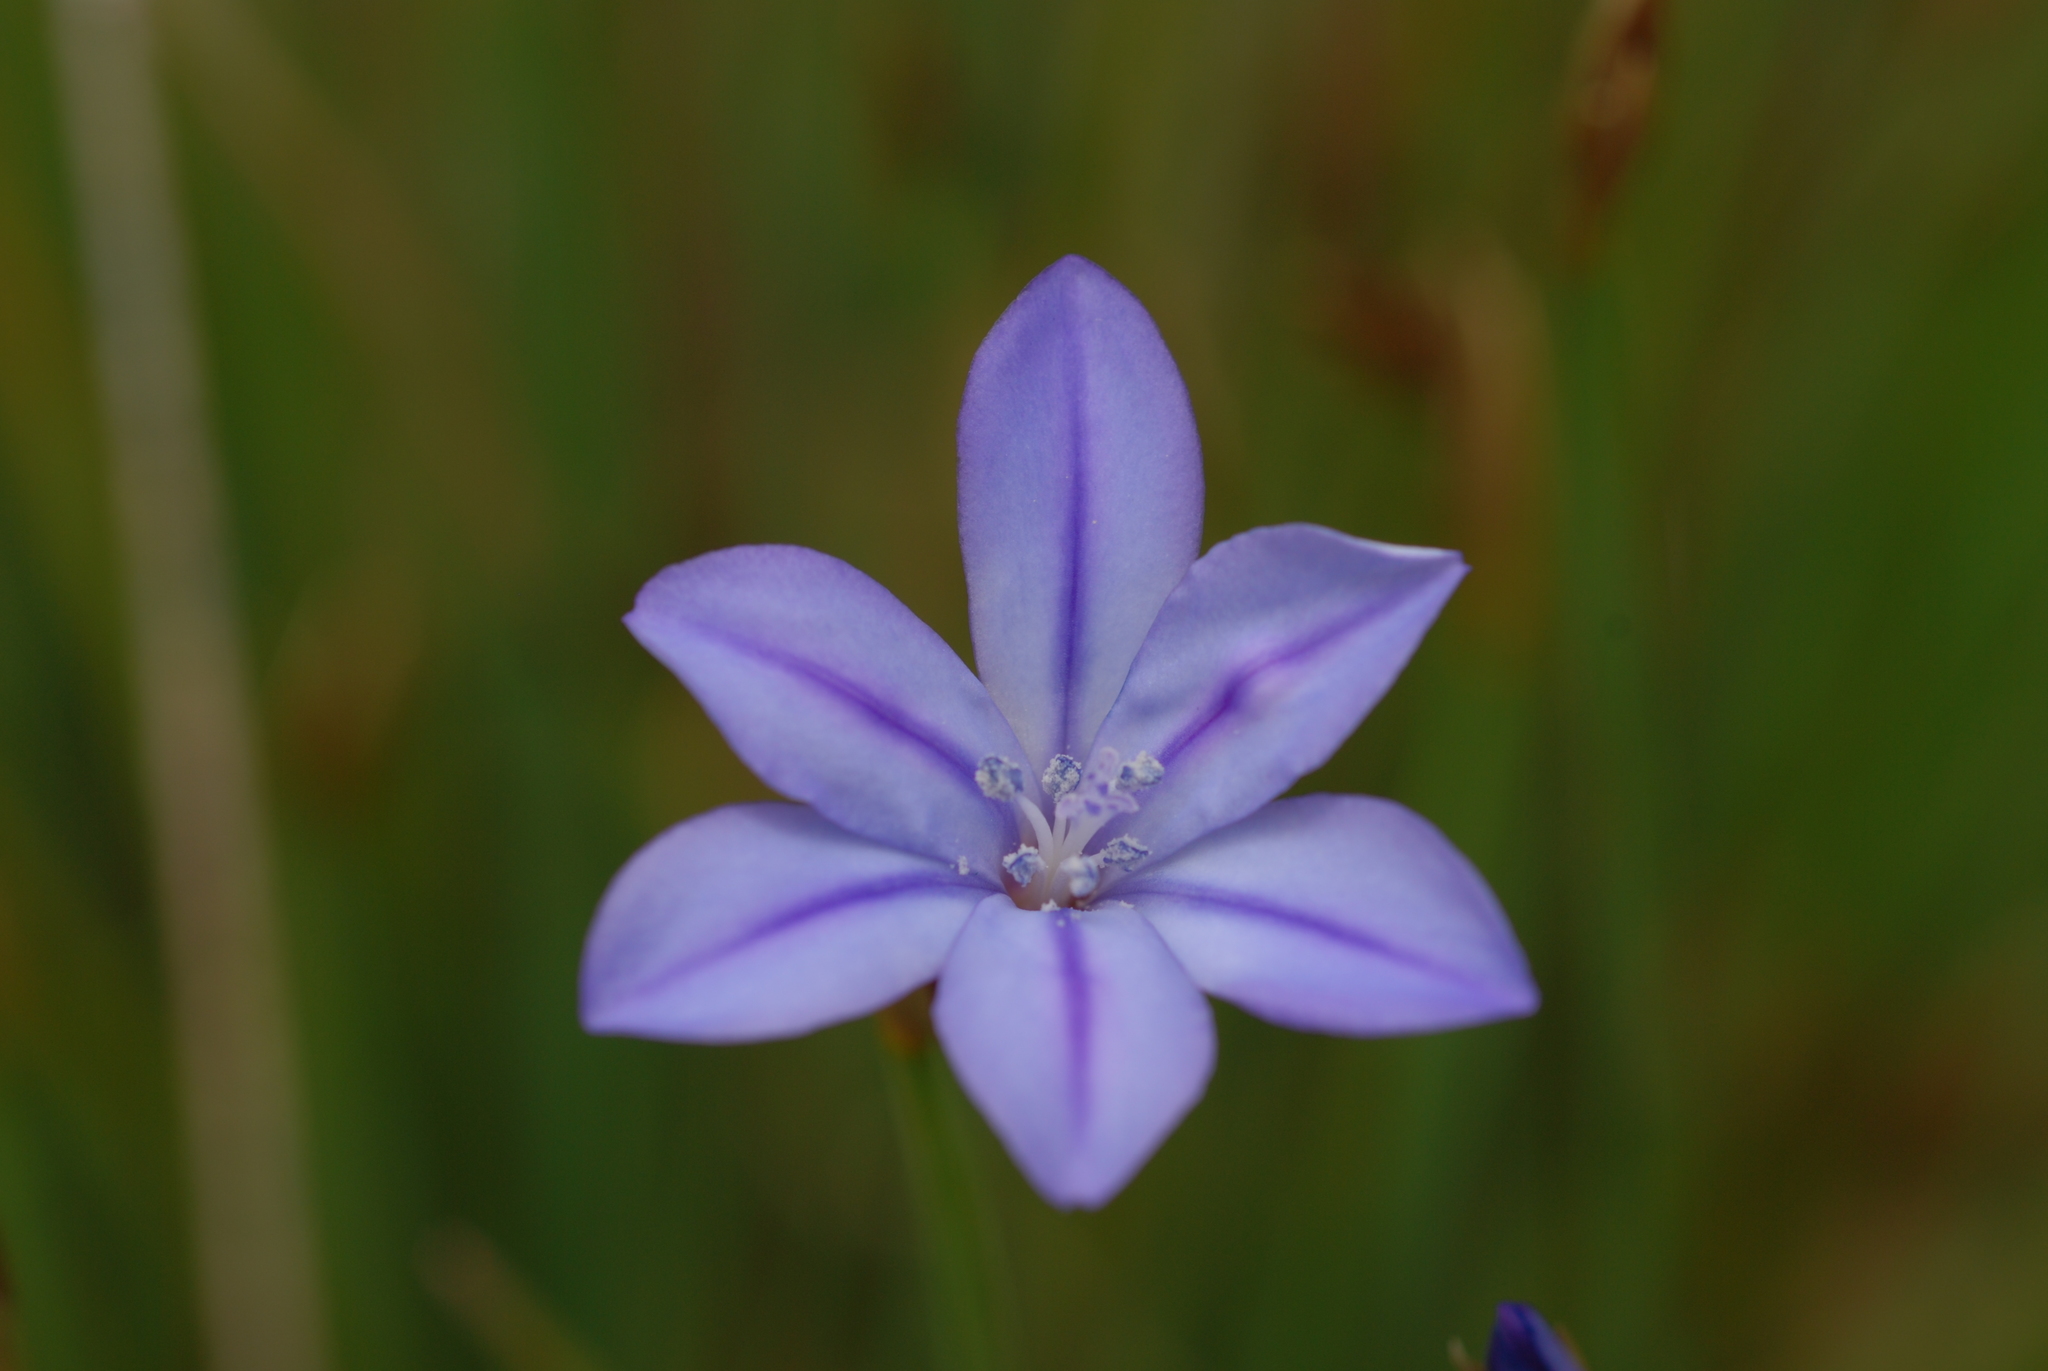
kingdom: Plantae
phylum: Tracheophyta
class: Liliopsida
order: Asparagales
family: Asparagaceae
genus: Aphyllanthes
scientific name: Aphyllanthes monspeliensis
